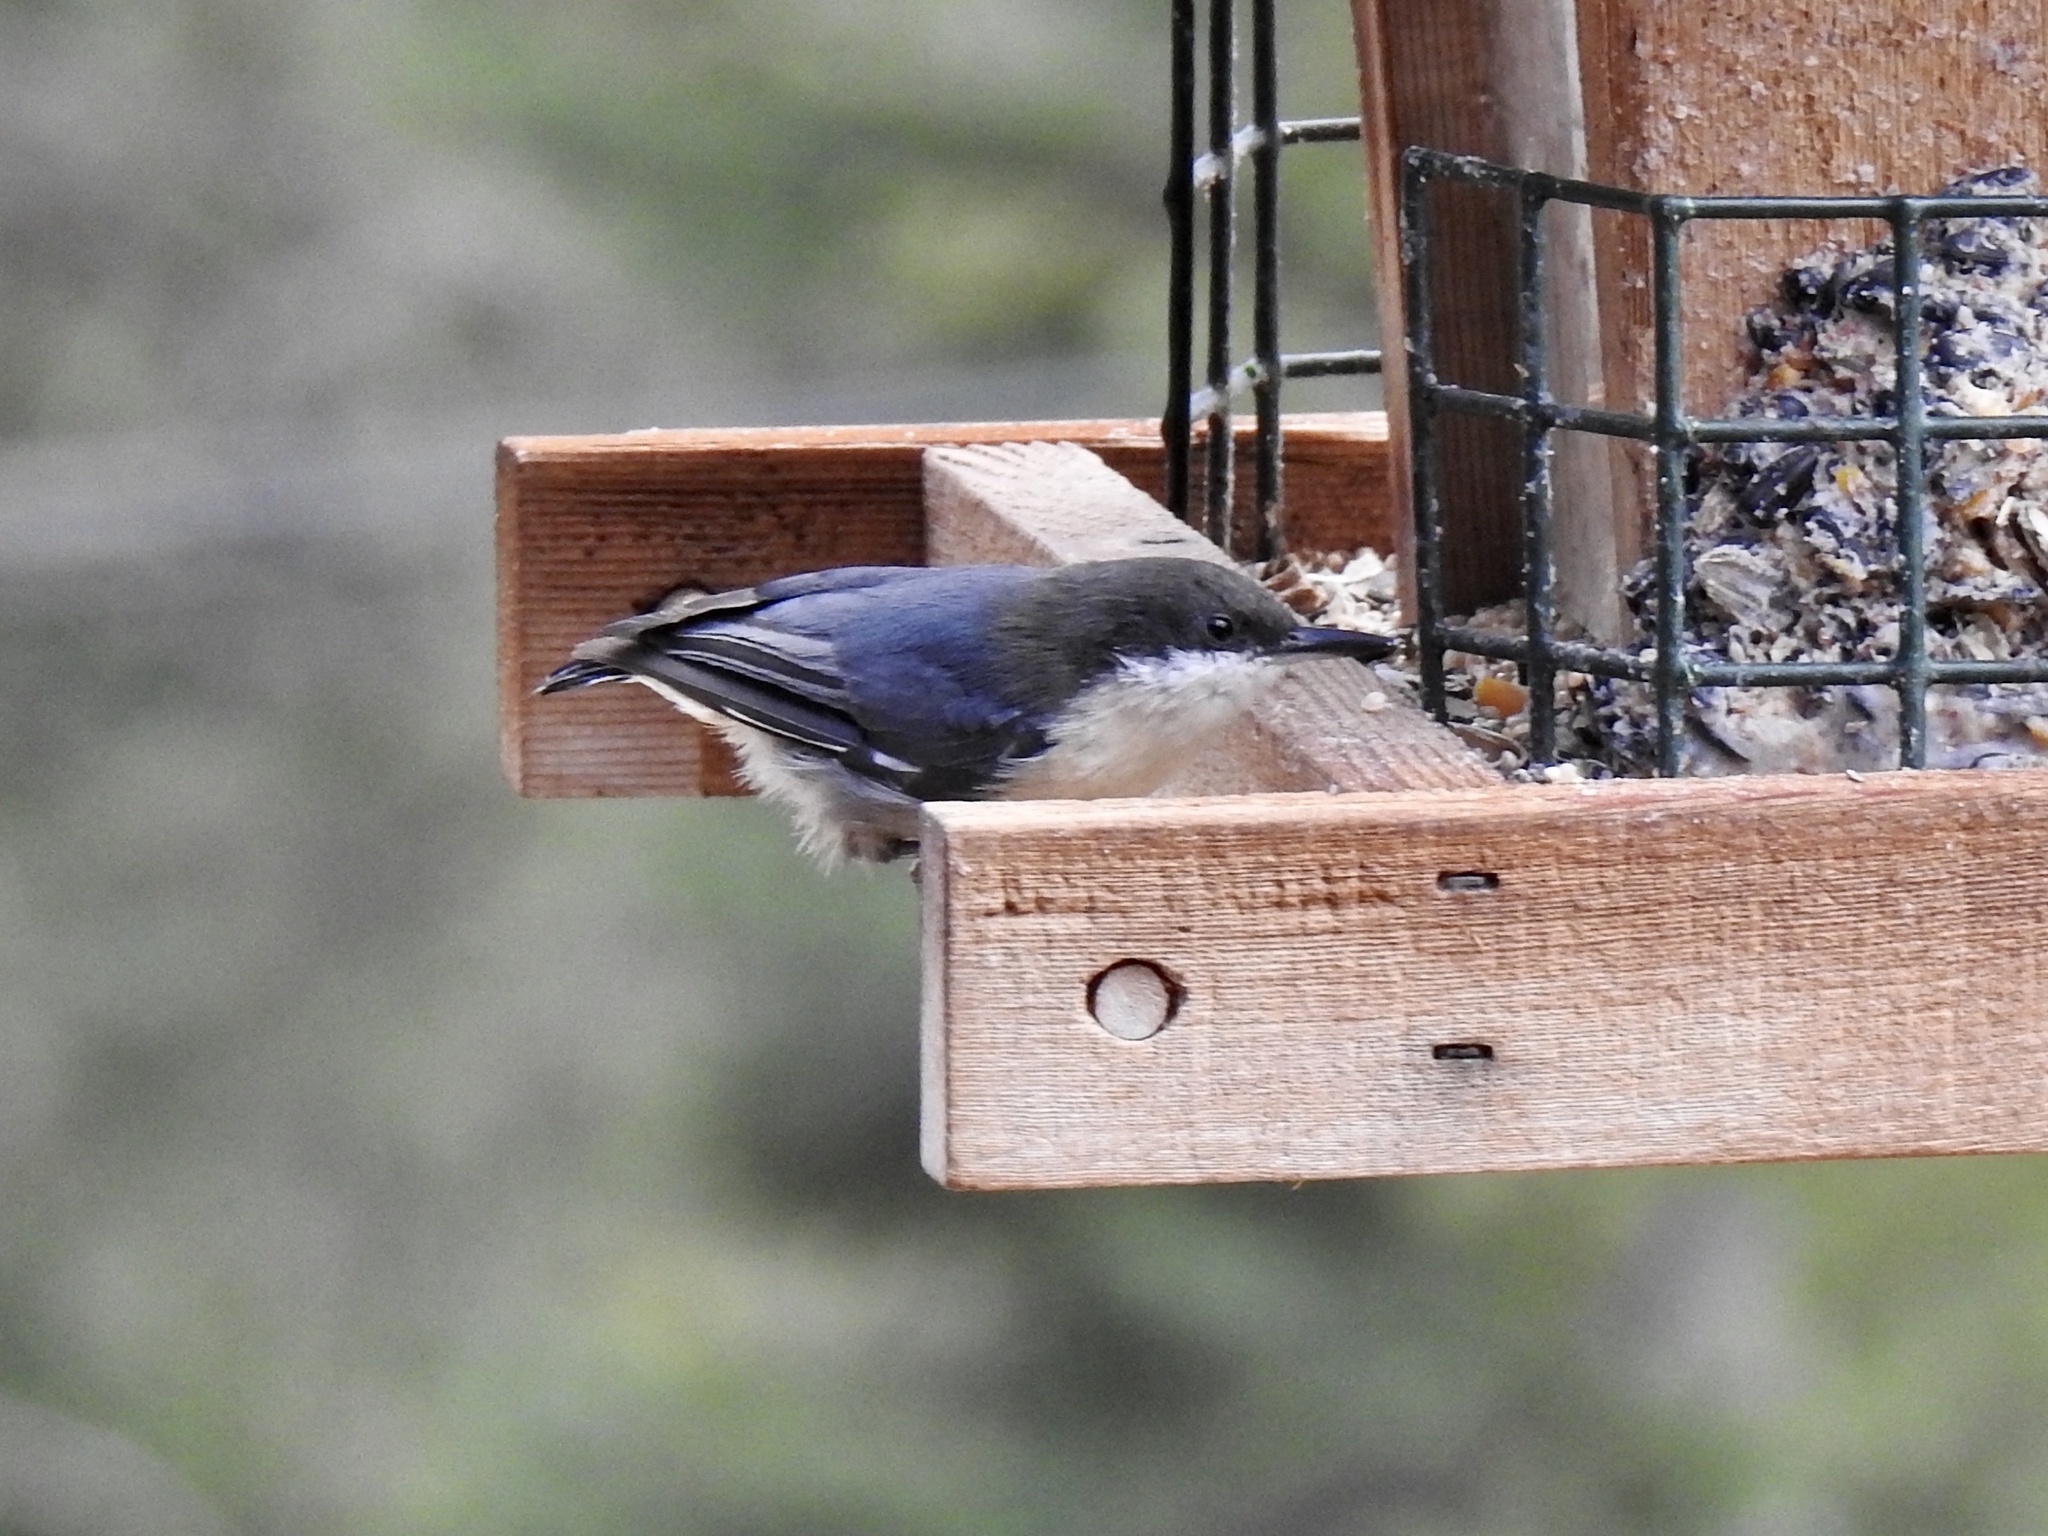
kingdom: Animalia
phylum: Chordata
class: Aves
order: Passeriformes
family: Sittidae
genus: Sitta
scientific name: Sitta pygmaea
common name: Pygmy nuthatch
